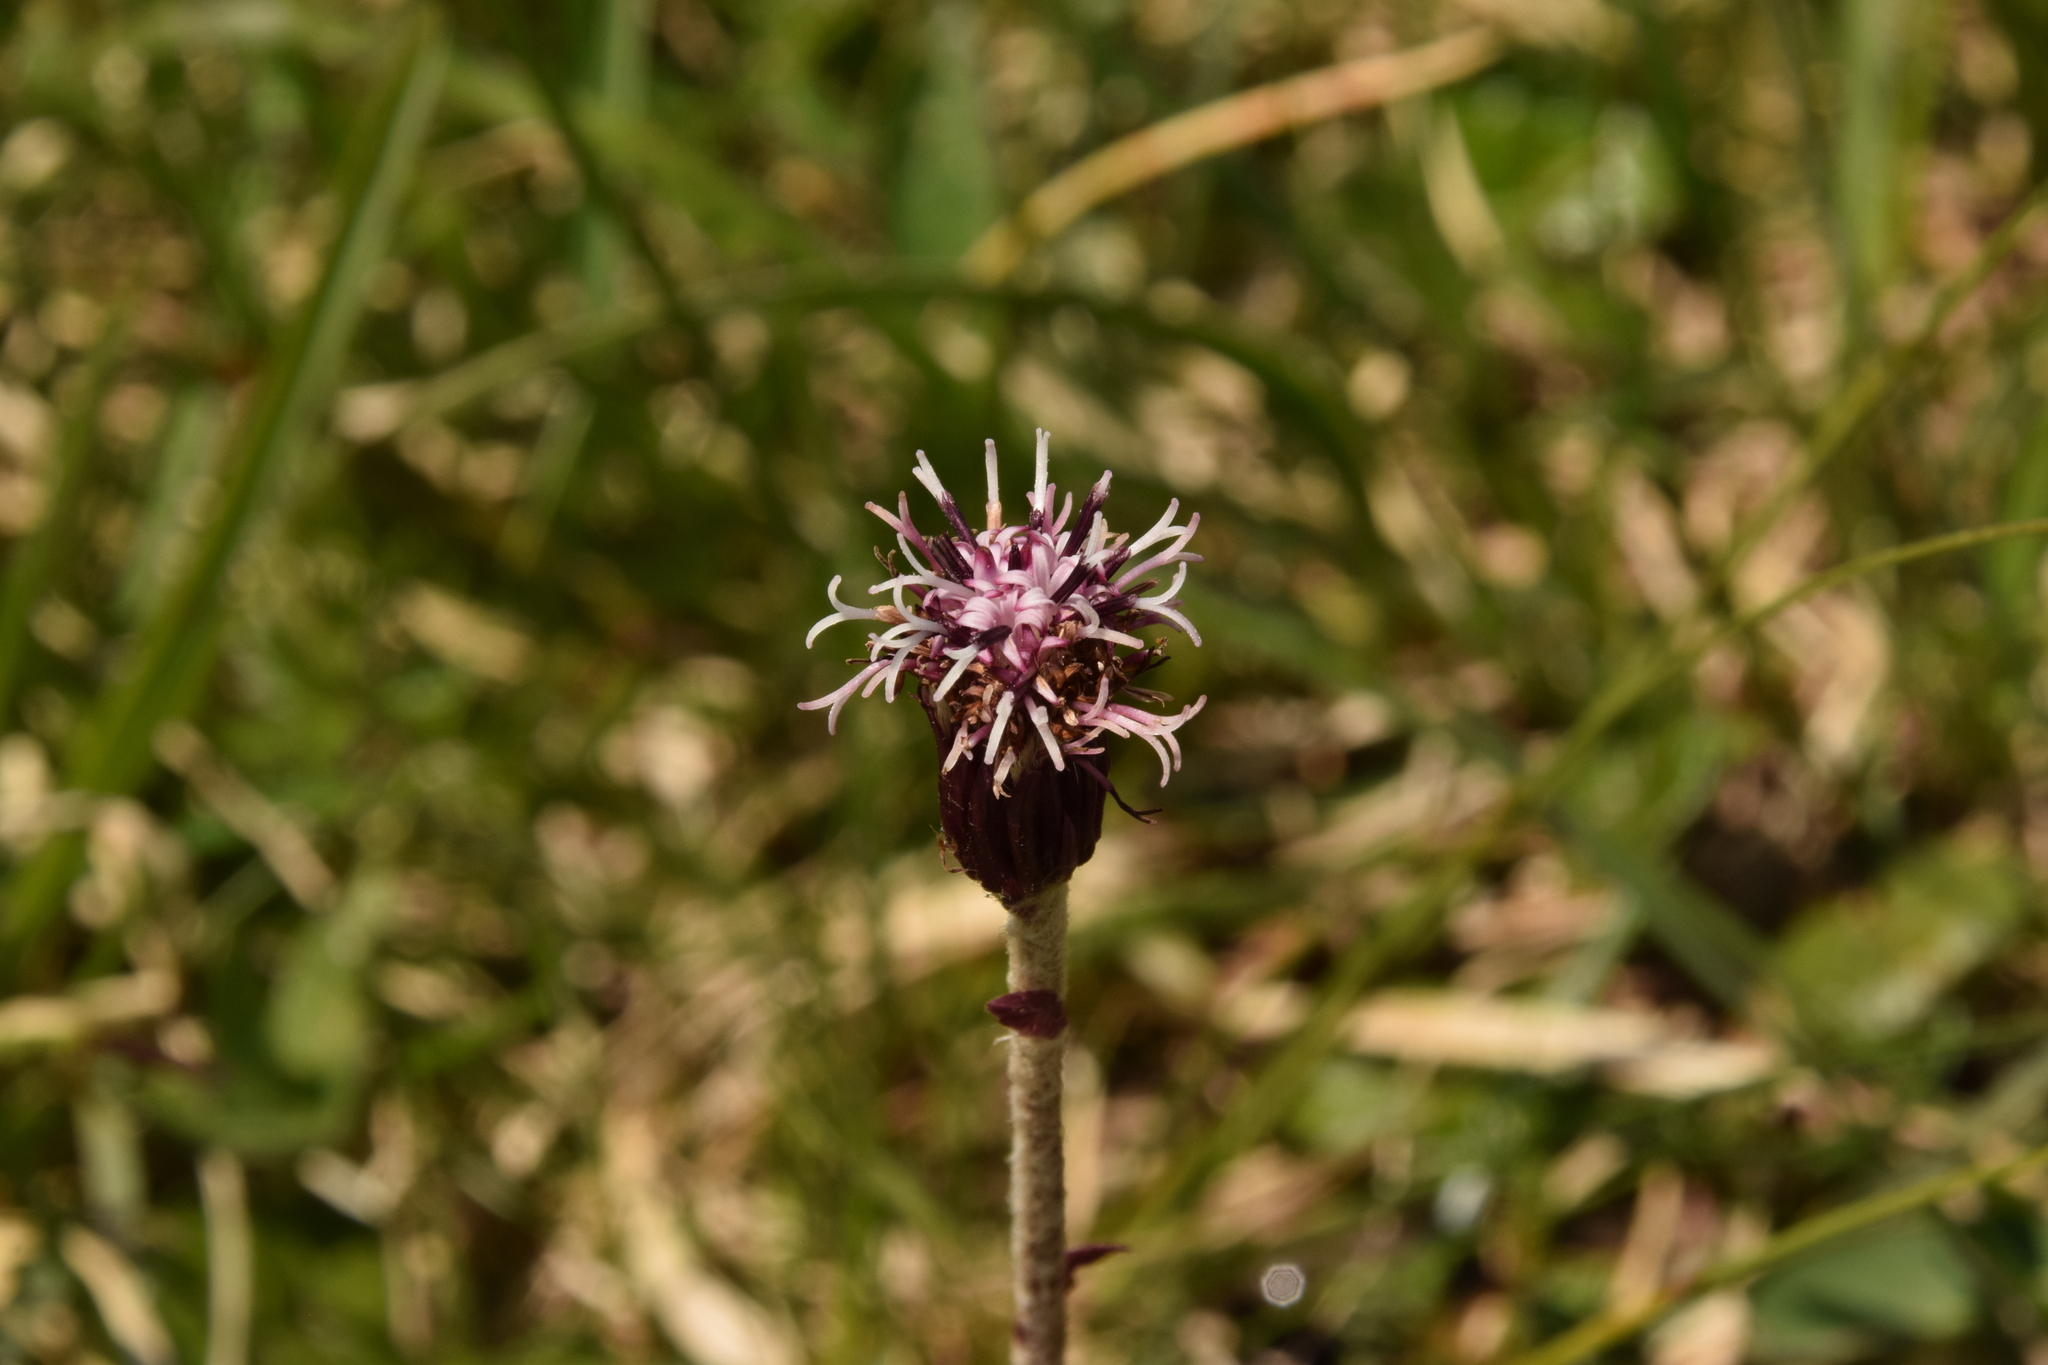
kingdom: Plantae
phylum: Tracheophyta
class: Magnoliopsida
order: Asterales
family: Asteraceae
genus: Homogyne
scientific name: Homogyne alpina
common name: Purple colt's-foot
